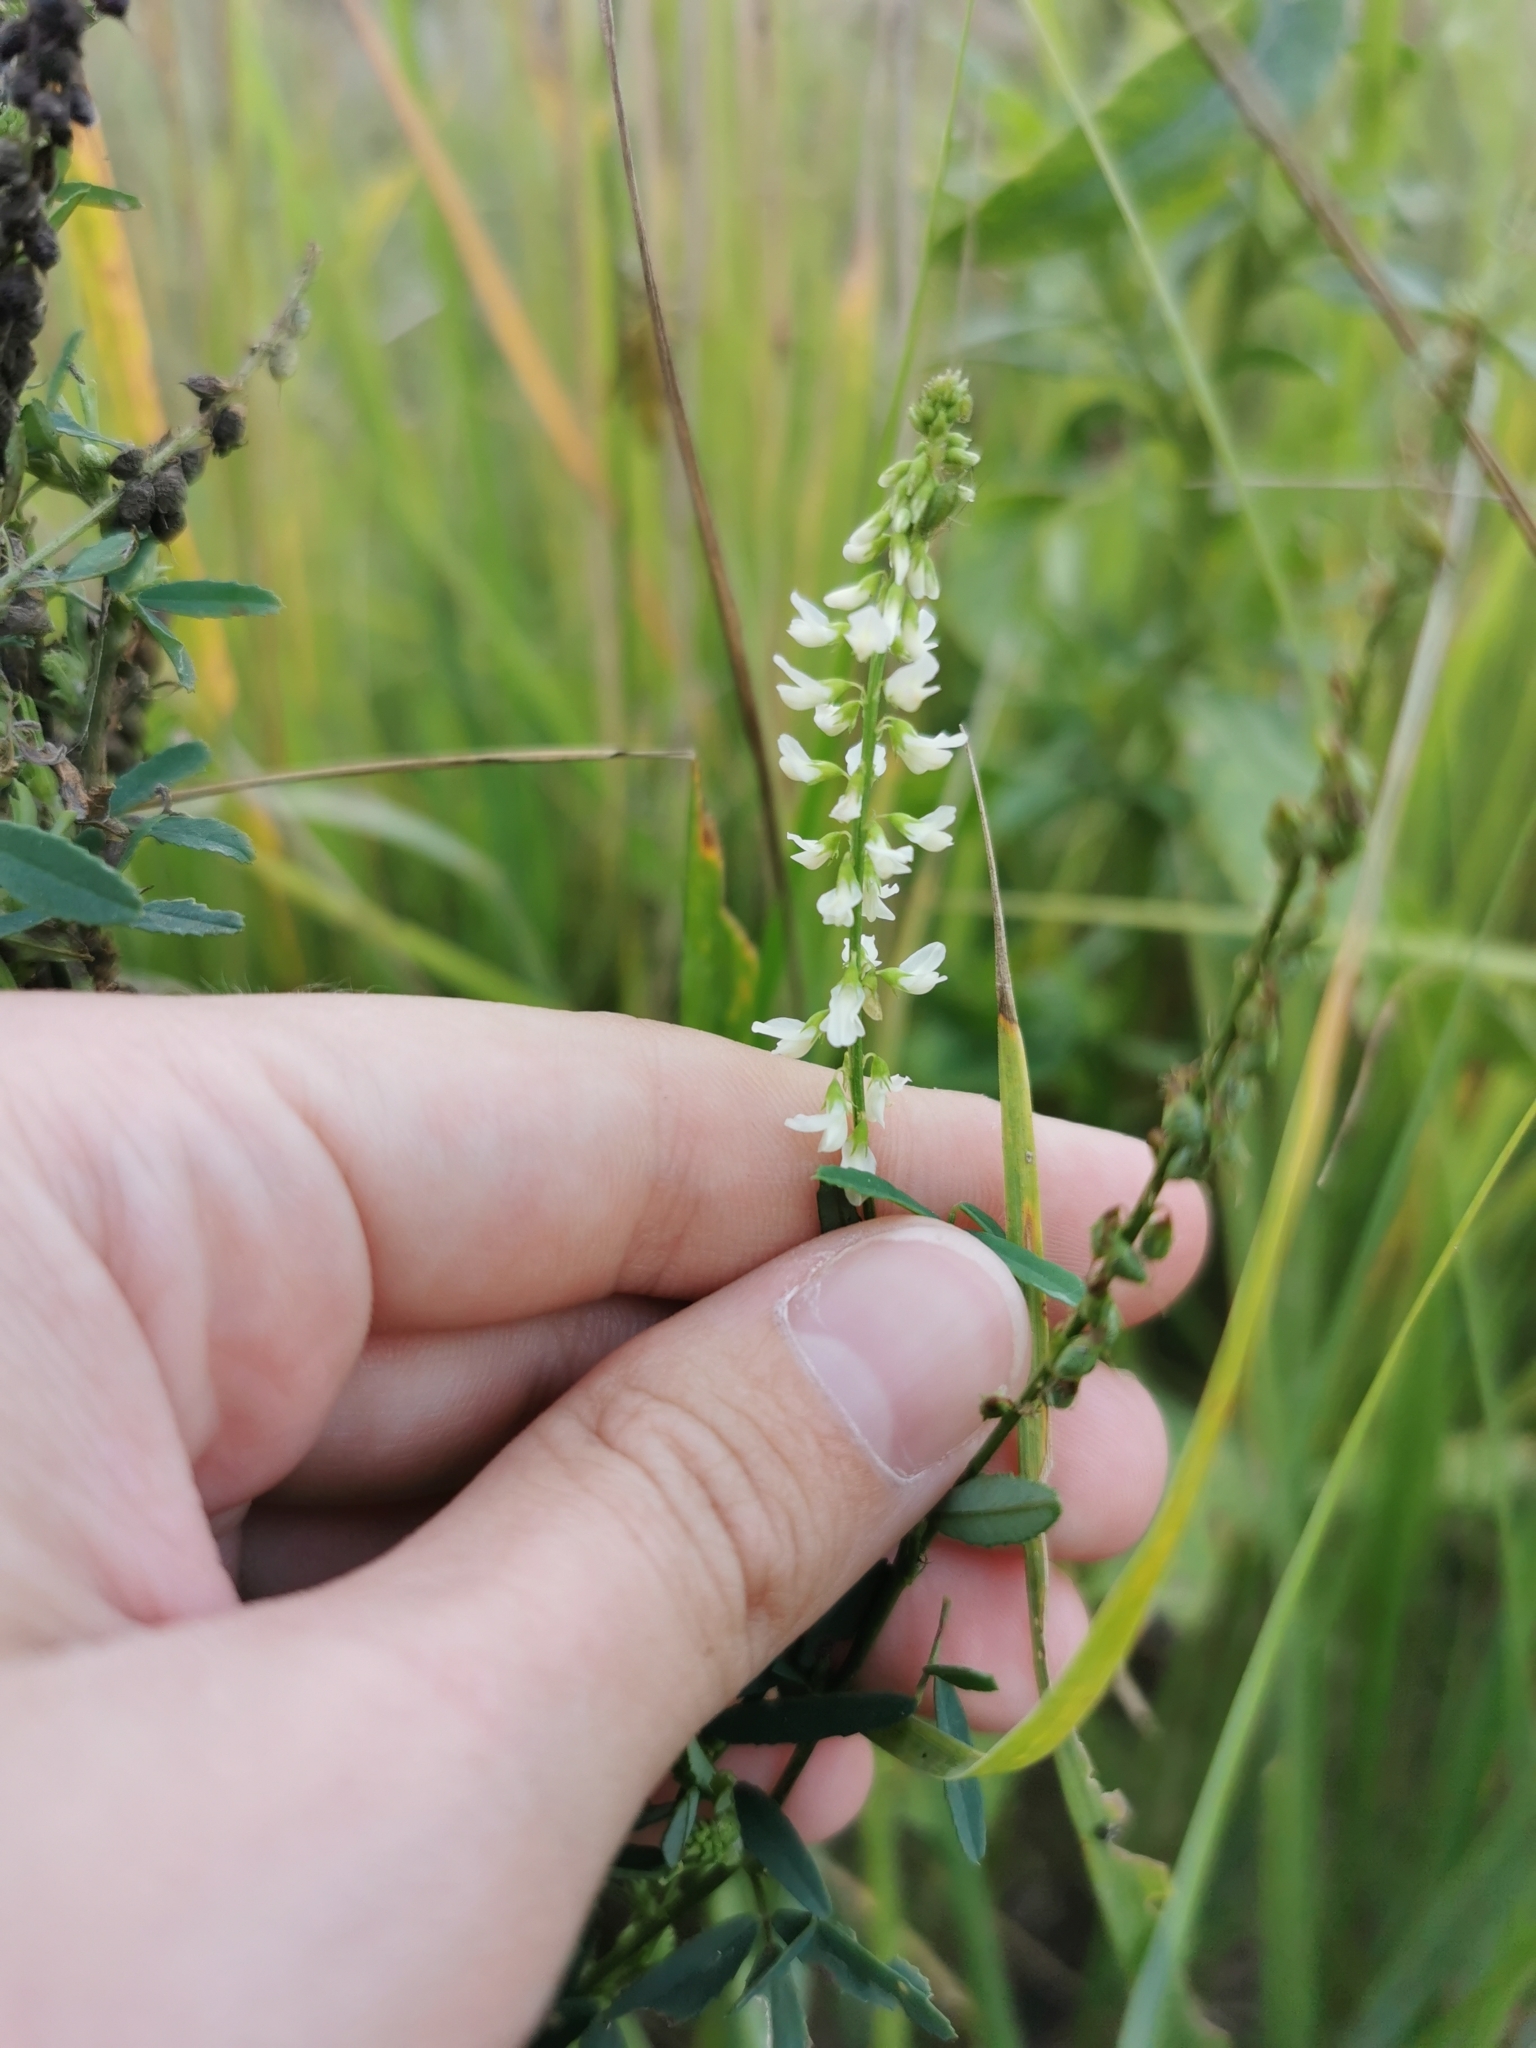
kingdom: Plantae
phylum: Tracheophyta
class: Magnoliopsida
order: Fabales
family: Fabaceae
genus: Melilotus
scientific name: Melilotus albus
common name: White melilot
